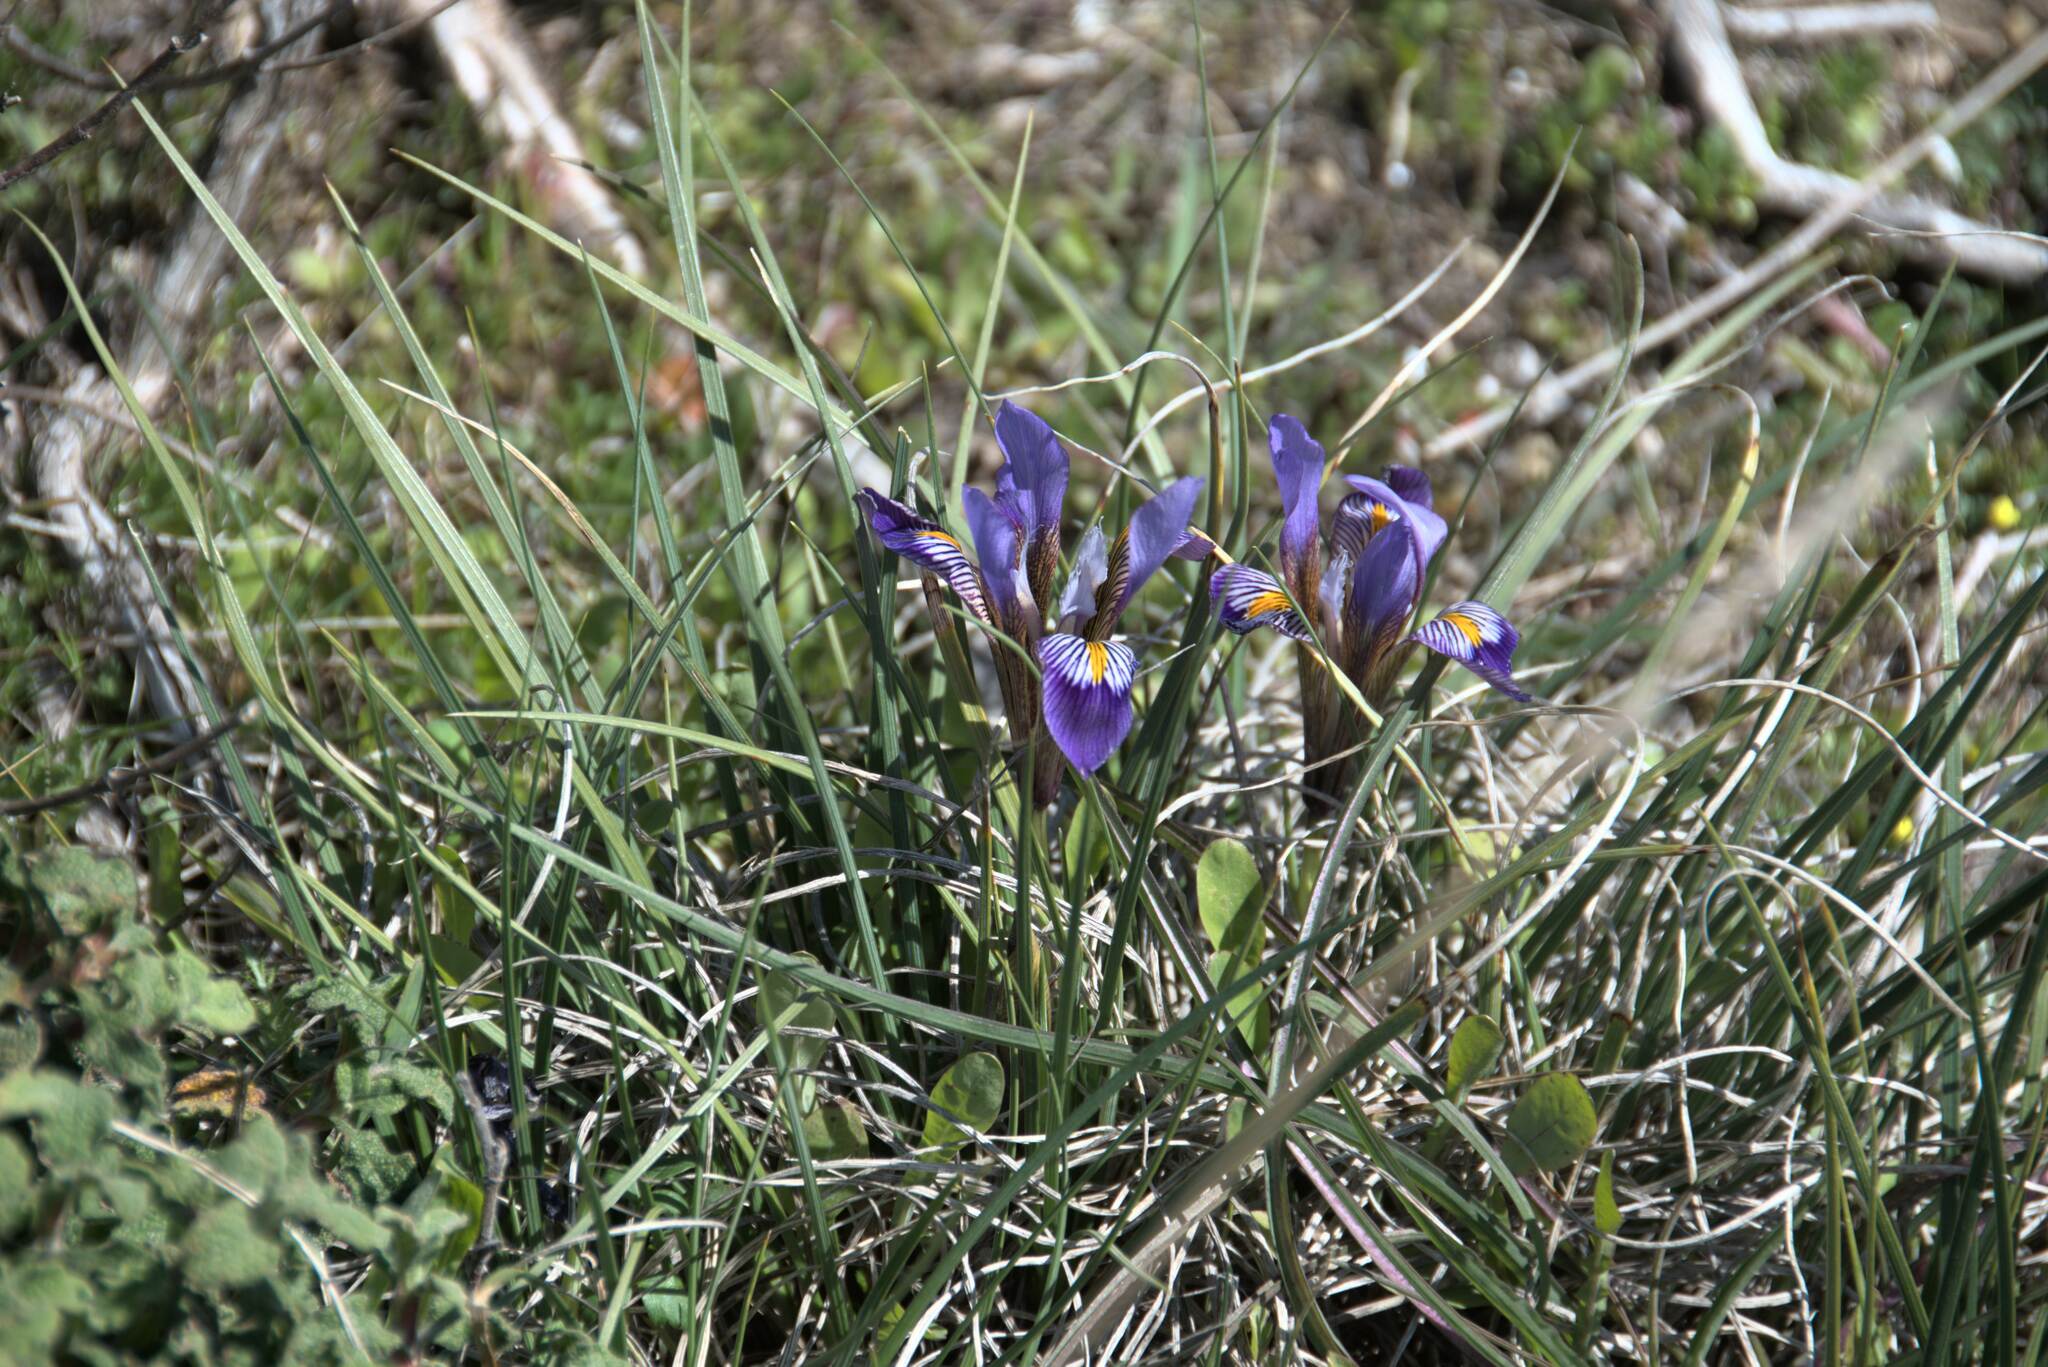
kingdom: Plantae
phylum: Tracheophyta
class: Liliopsida
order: Asparagales
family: Iridaceae
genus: Iris
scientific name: Iris unguicularis
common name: Algerian iris
